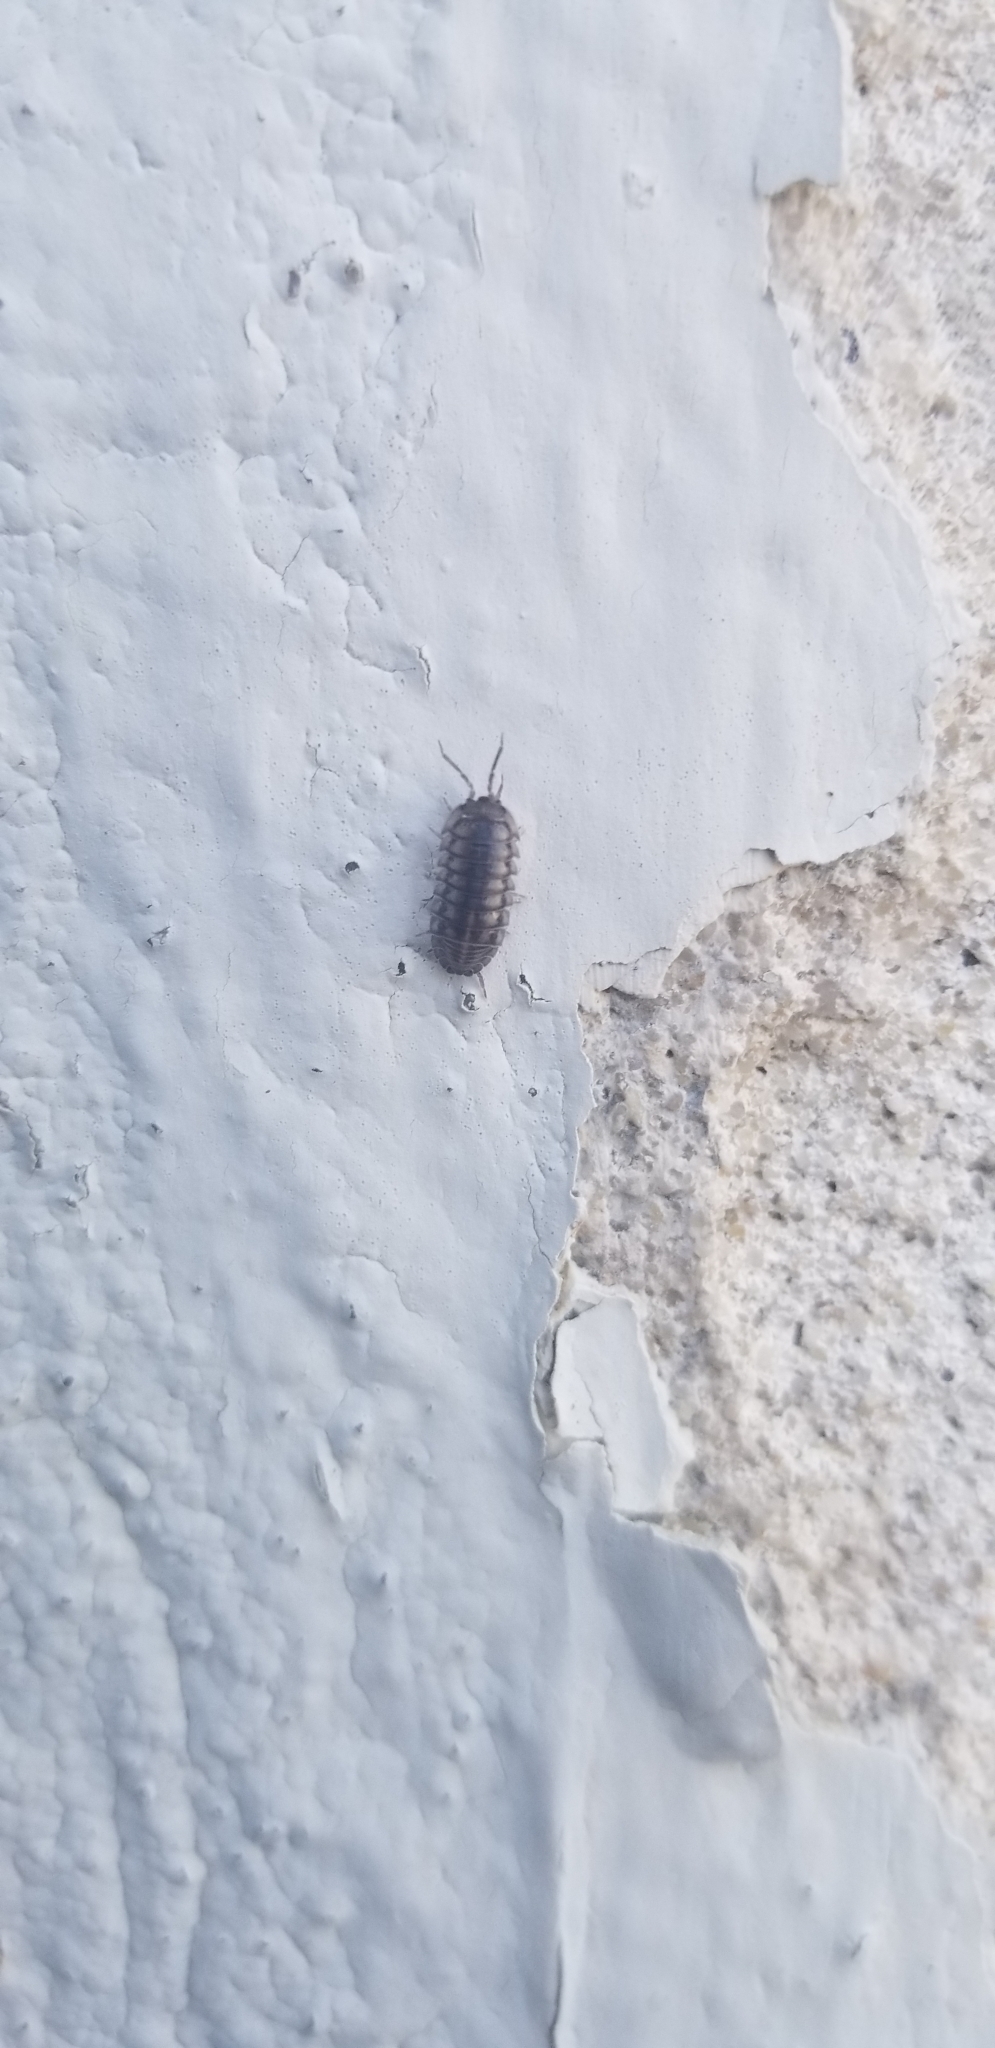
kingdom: Animalia
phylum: Arthropoda
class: Malacostraca
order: Isopoda
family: Armadillidiidae
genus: Armadillidium
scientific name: Armadillidium vulgare
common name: Common pill woodlouse
